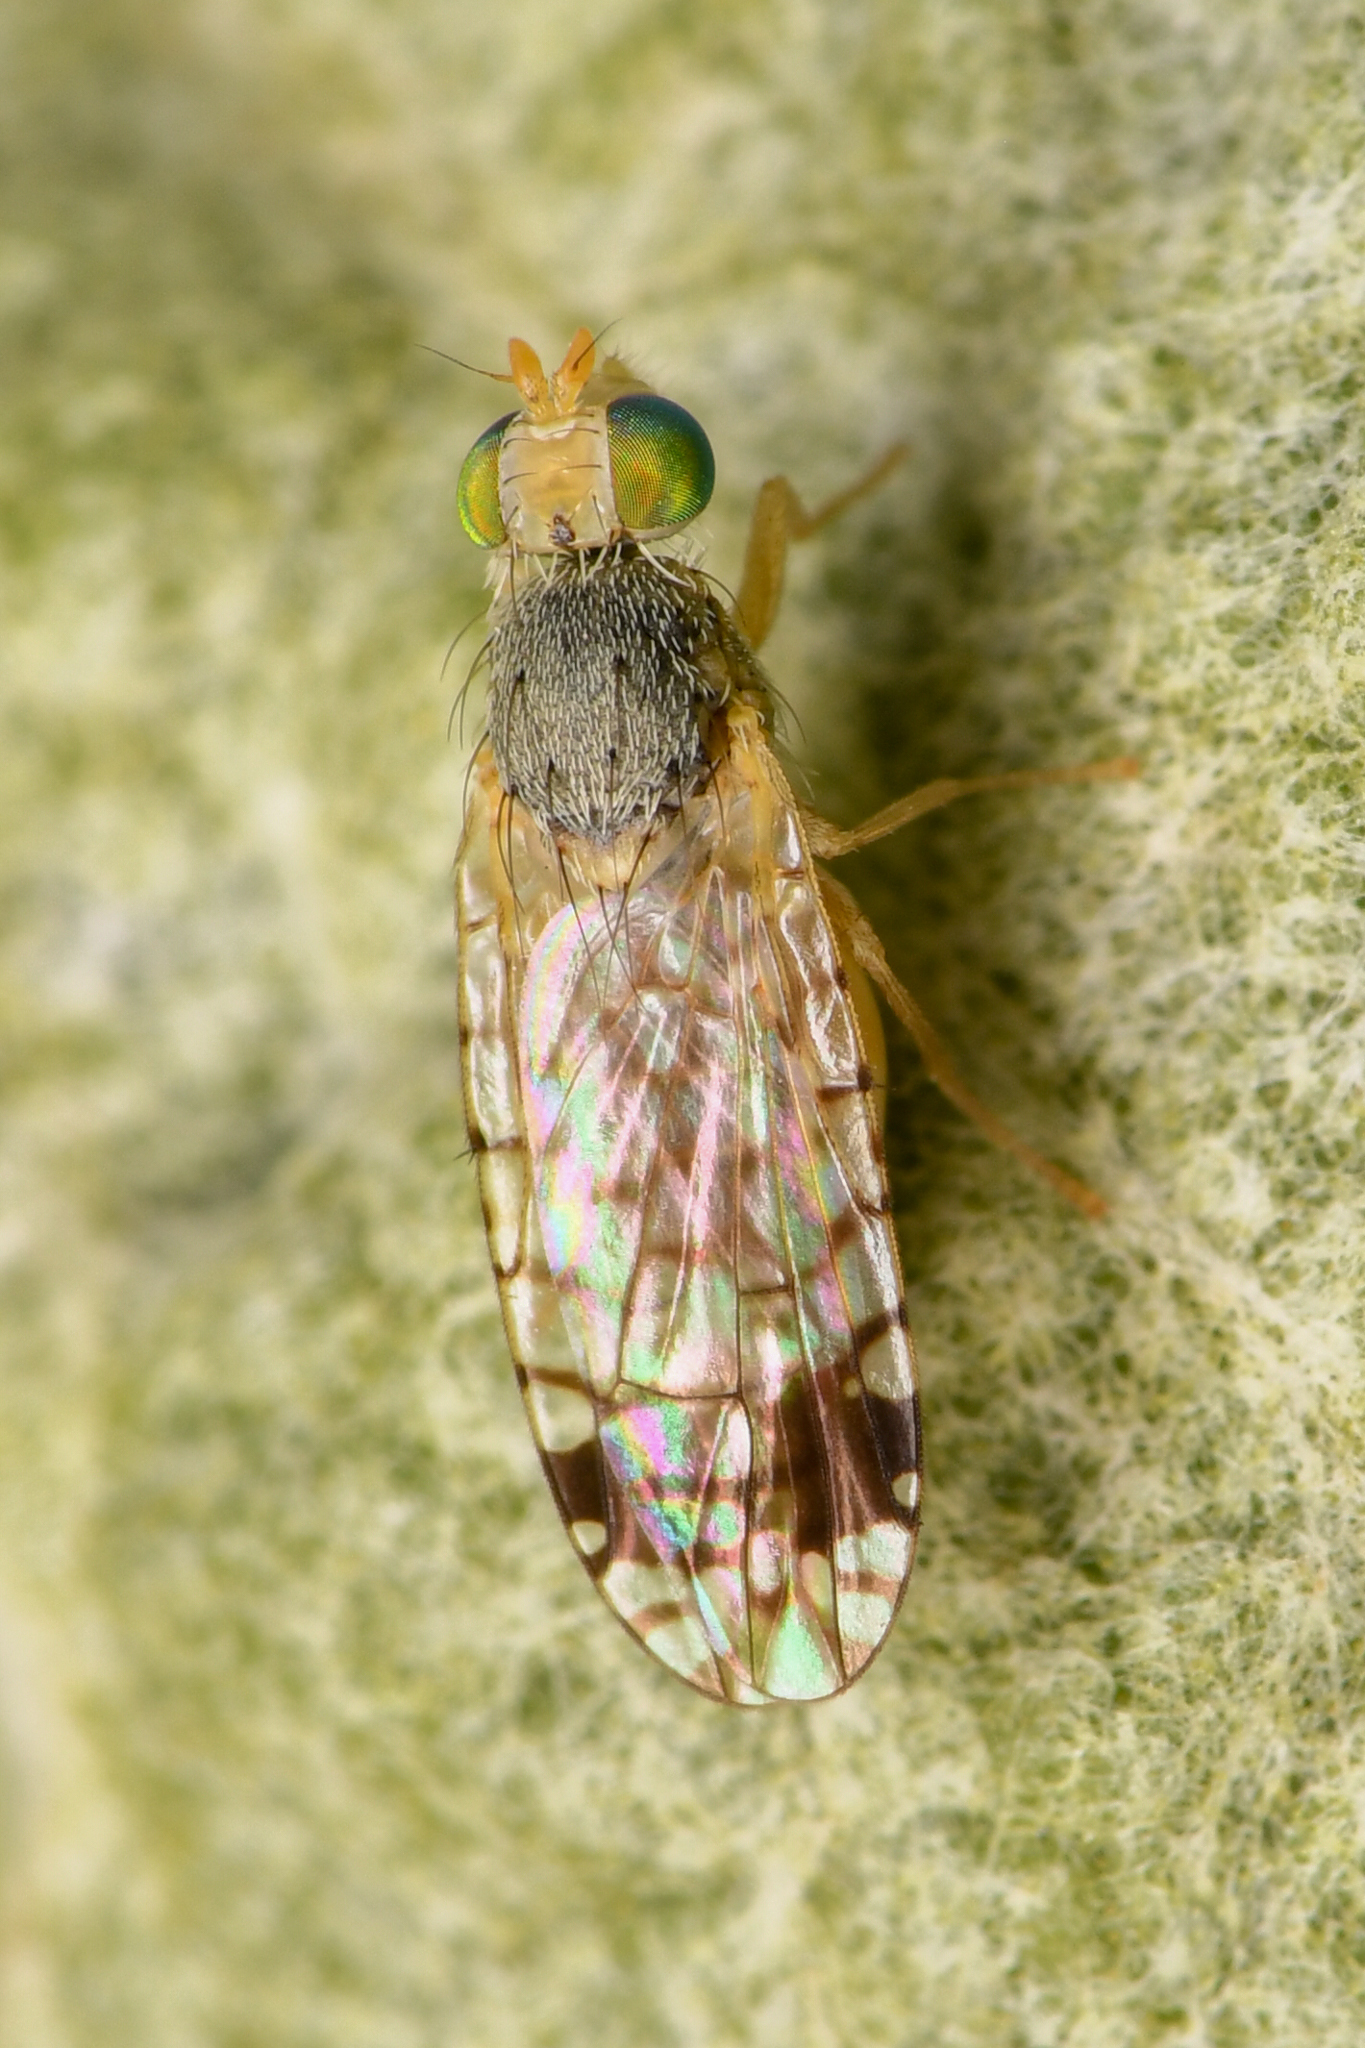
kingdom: Animalia
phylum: Arthropoda
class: Insecta
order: Diptera
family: Tephritidae
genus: Euarestoides
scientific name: Euarestoides acutangulus
